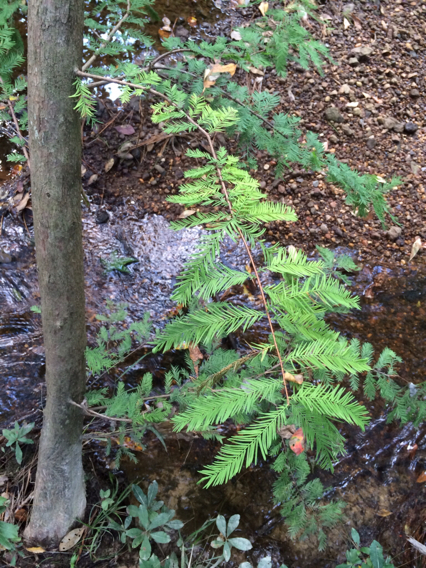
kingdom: Plantae
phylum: Tracheophyta
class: Pinopsida
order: Pinales
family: Cupressaceae
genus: Taxodium
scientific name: Taxodium distichum
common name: Bald cypress
